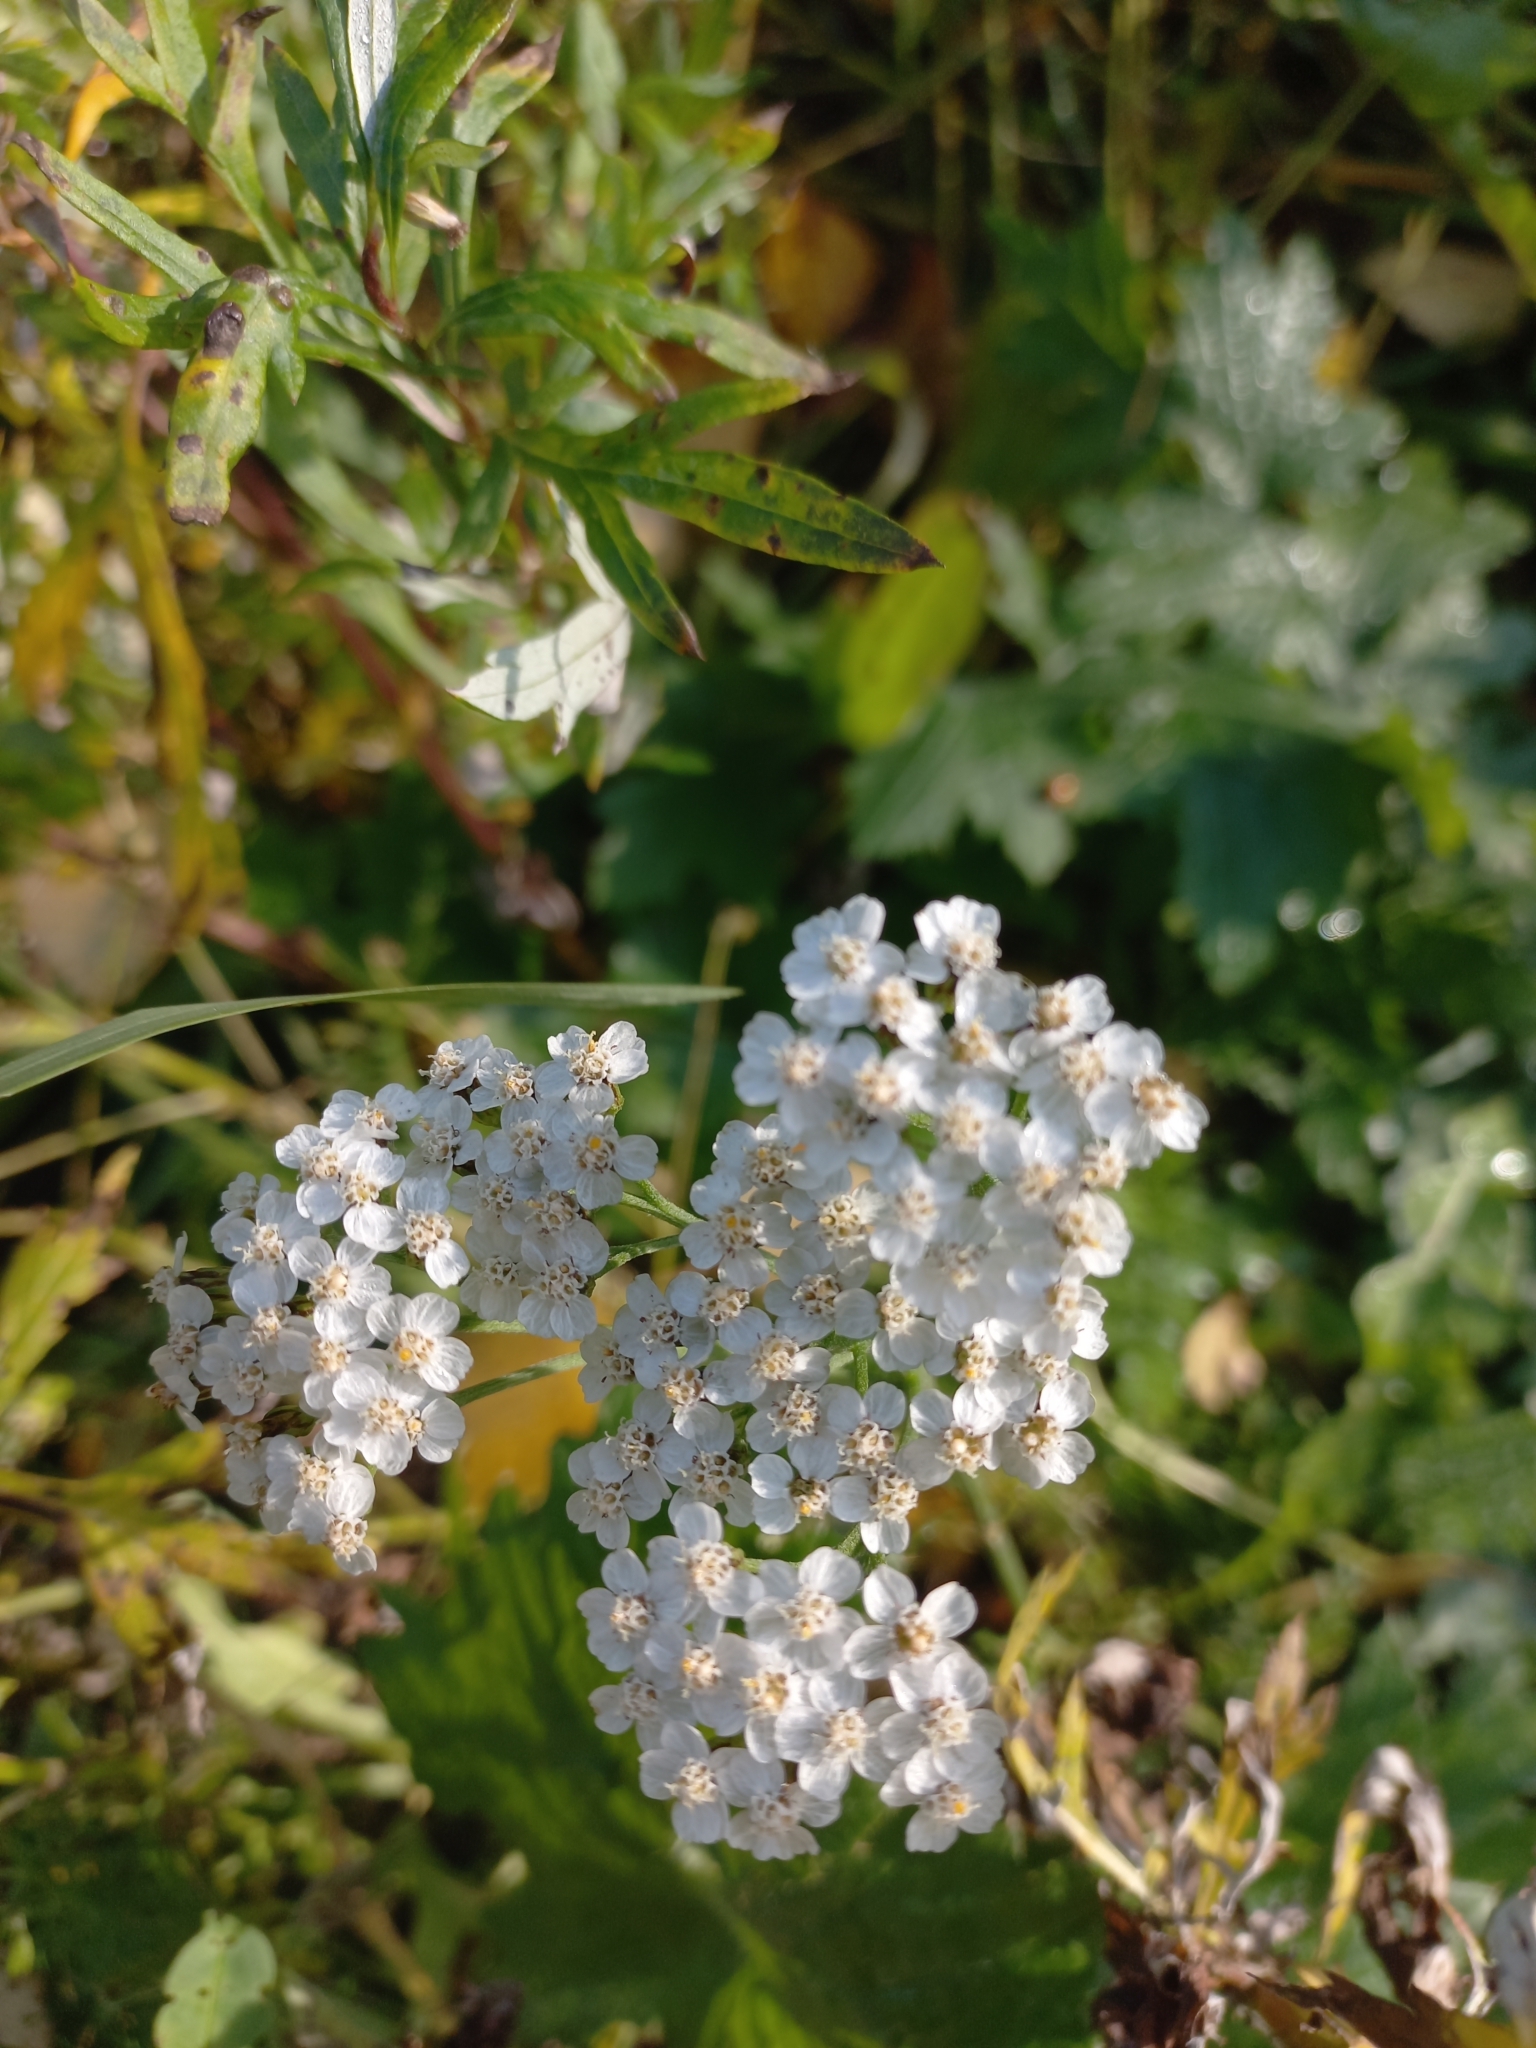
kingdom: Plantae
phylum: Tracheophyta
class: Magnoliopsida
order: Asterales
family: Asteraceae
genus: Achillea
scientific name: Achillea millefolium
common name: Yarrow
